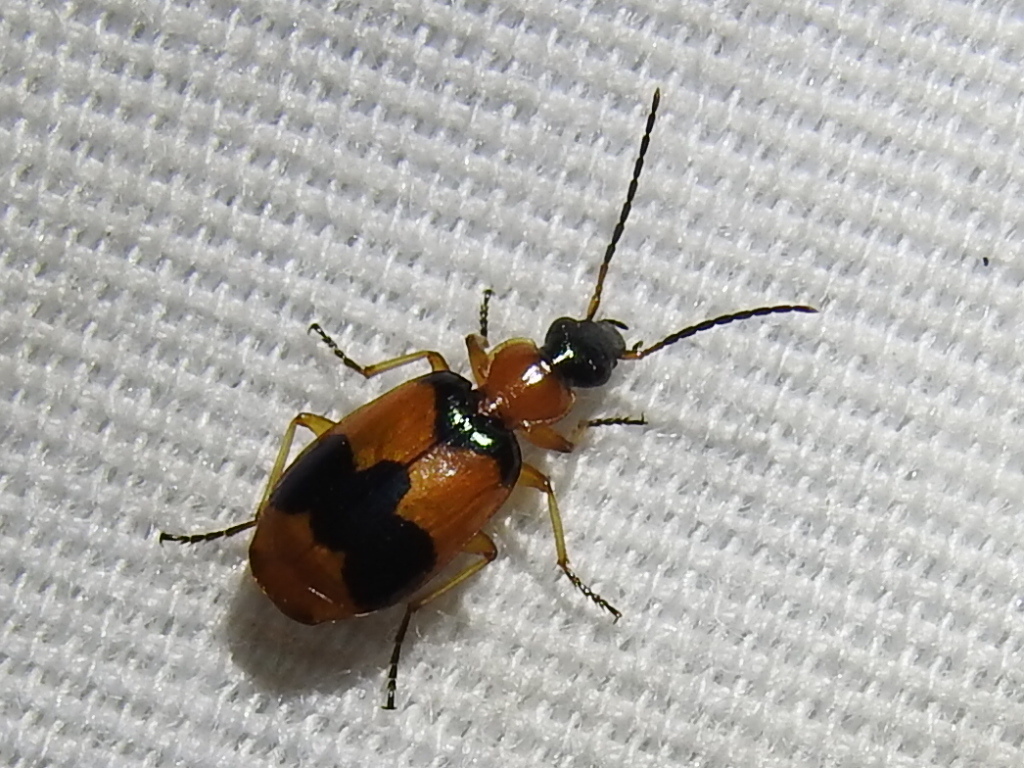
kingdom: Animalia
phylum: Arthropoda
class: Insecta
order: Coleoptera
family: Carabidae
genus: Lebia
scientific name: Lebia pulchella
